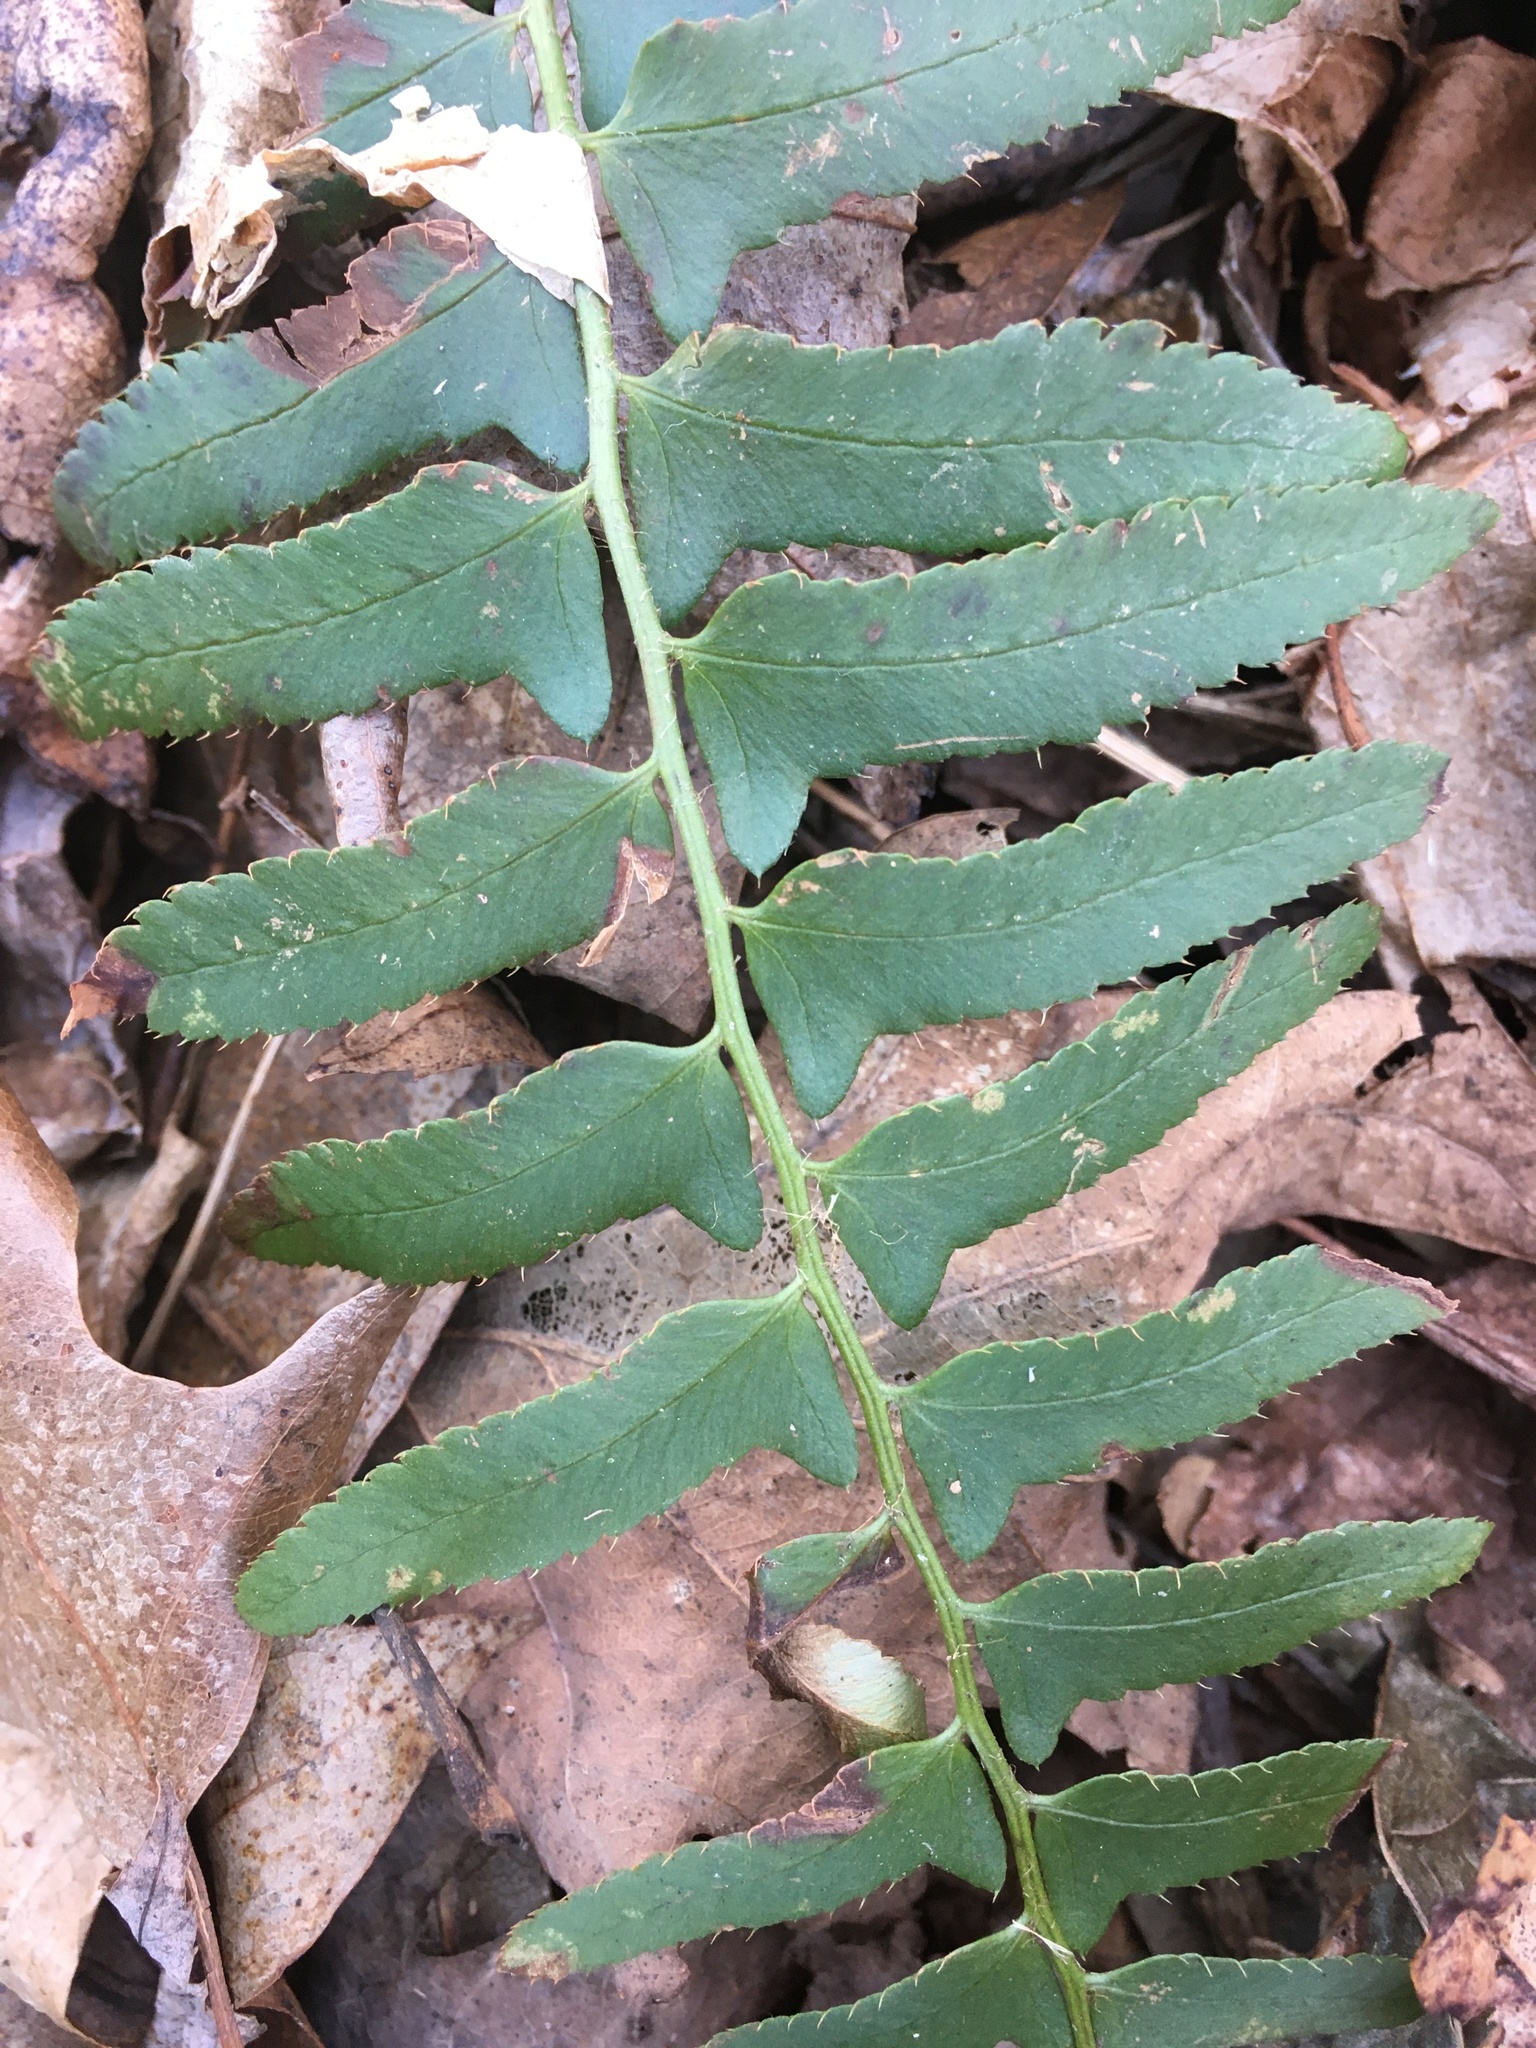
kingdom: Plantae
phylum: Tracheophyta
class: Polypodiopsida
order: Polypodiales
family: Dryopteridaceae
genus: Polystichum
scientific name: Polystichum acrostichoides
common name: Christmas fern
